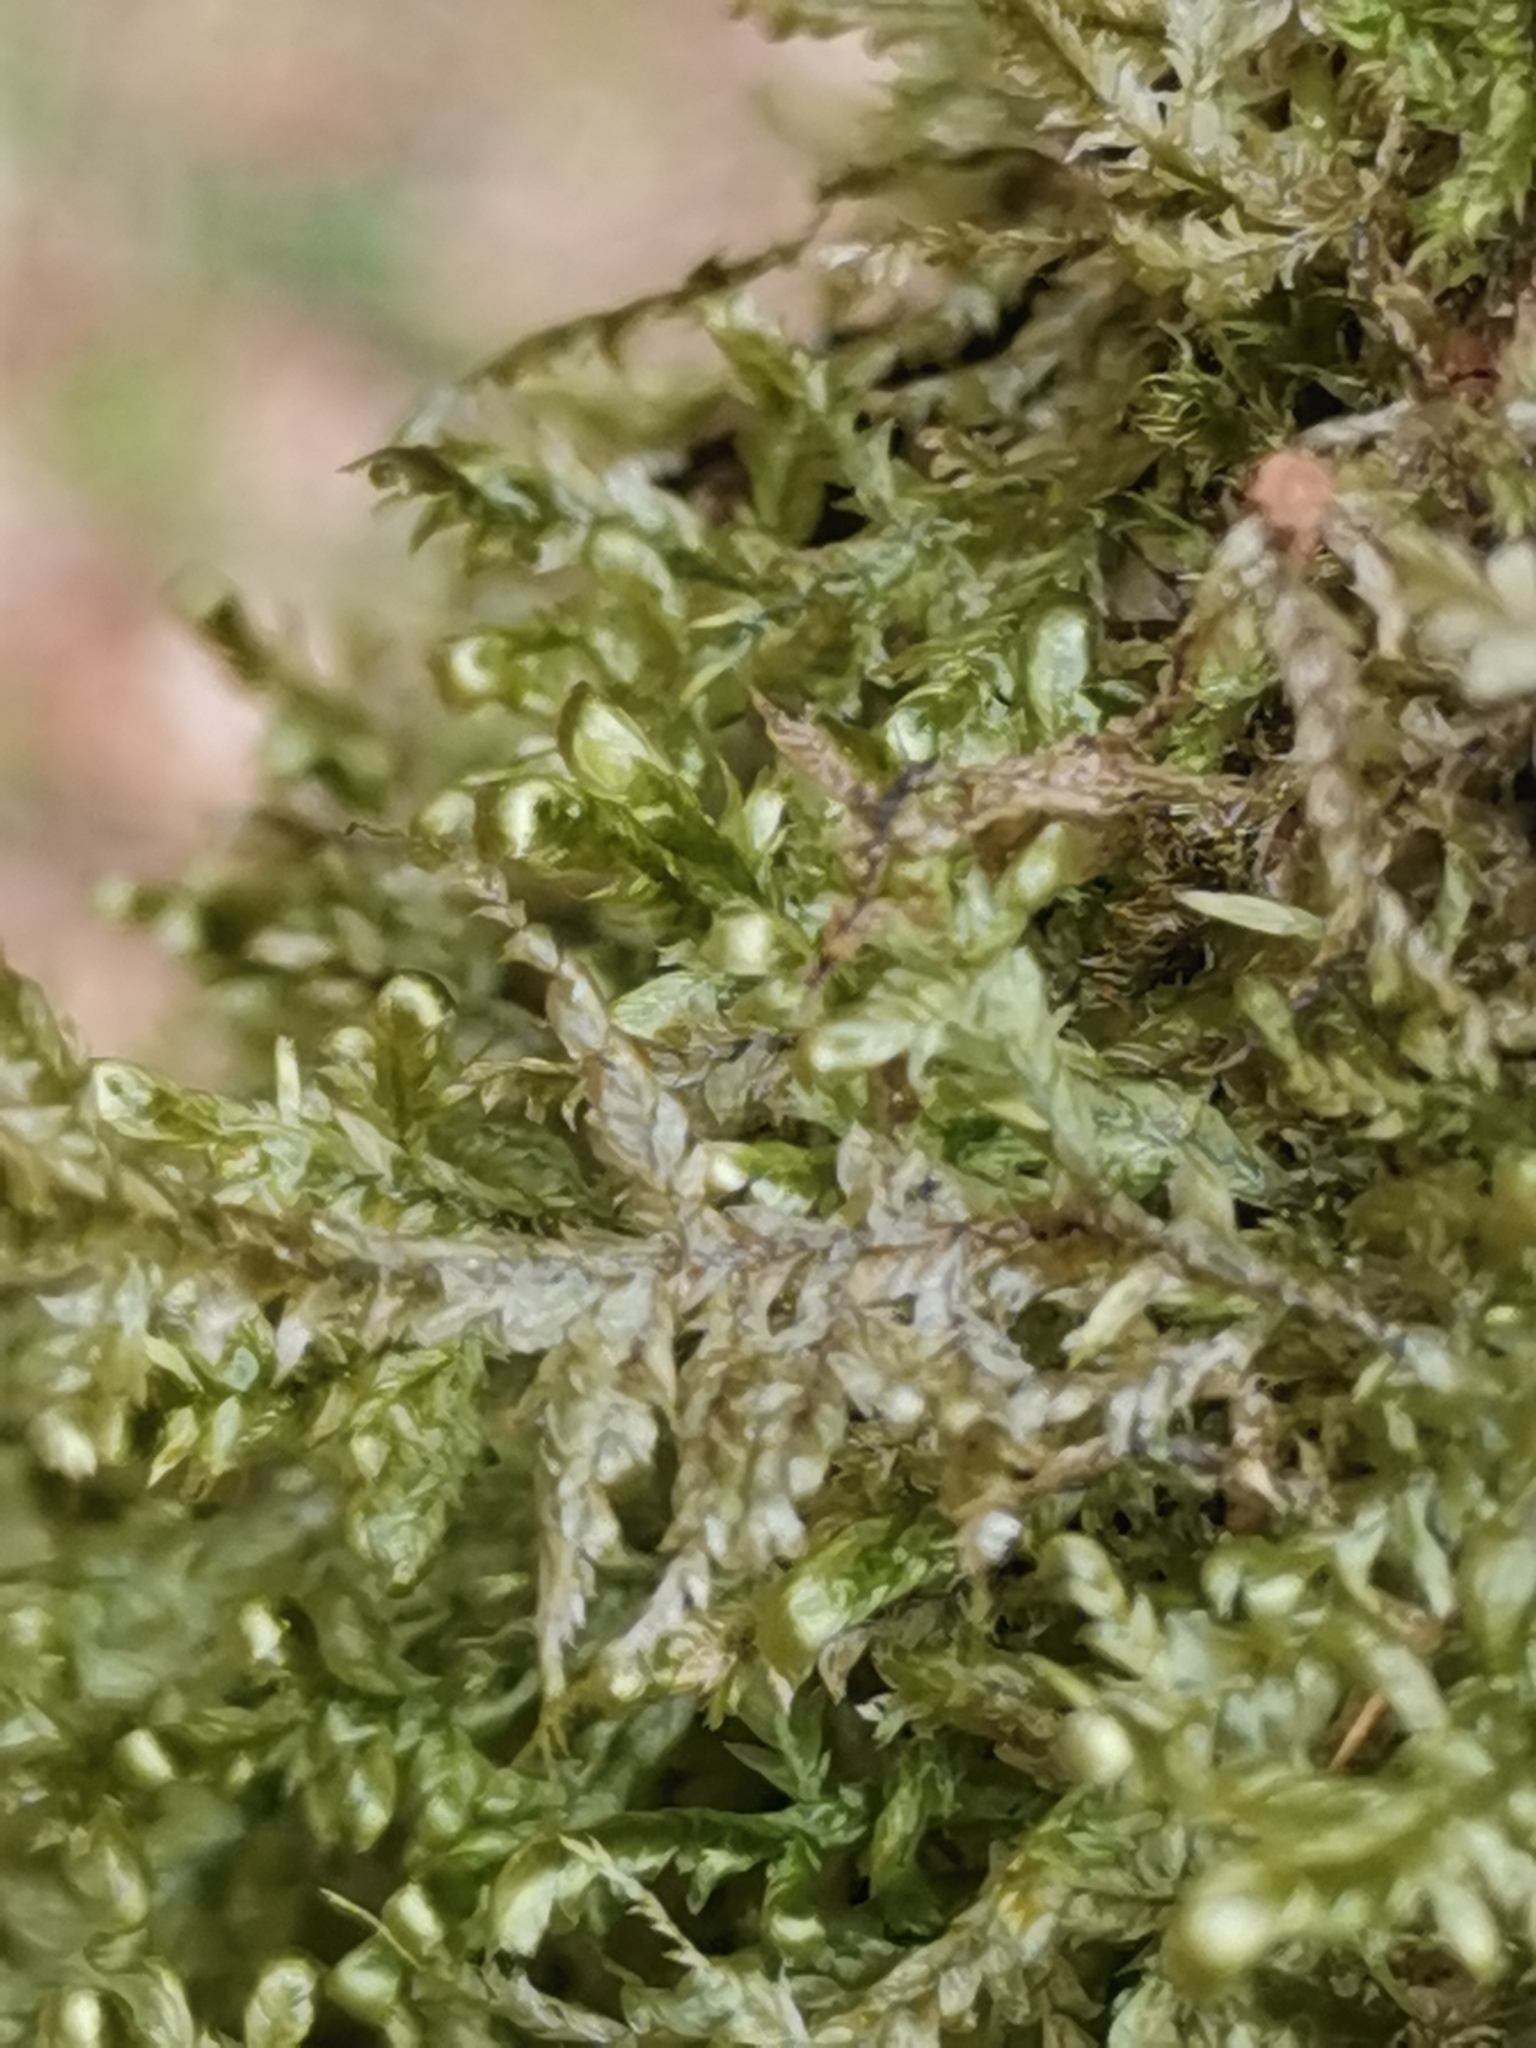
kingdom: Plantae
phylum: Bryophyta
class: Bryopsida
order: Hypnales
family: Neckeraceae
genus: Alleniella
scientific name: Alleniella complanata
